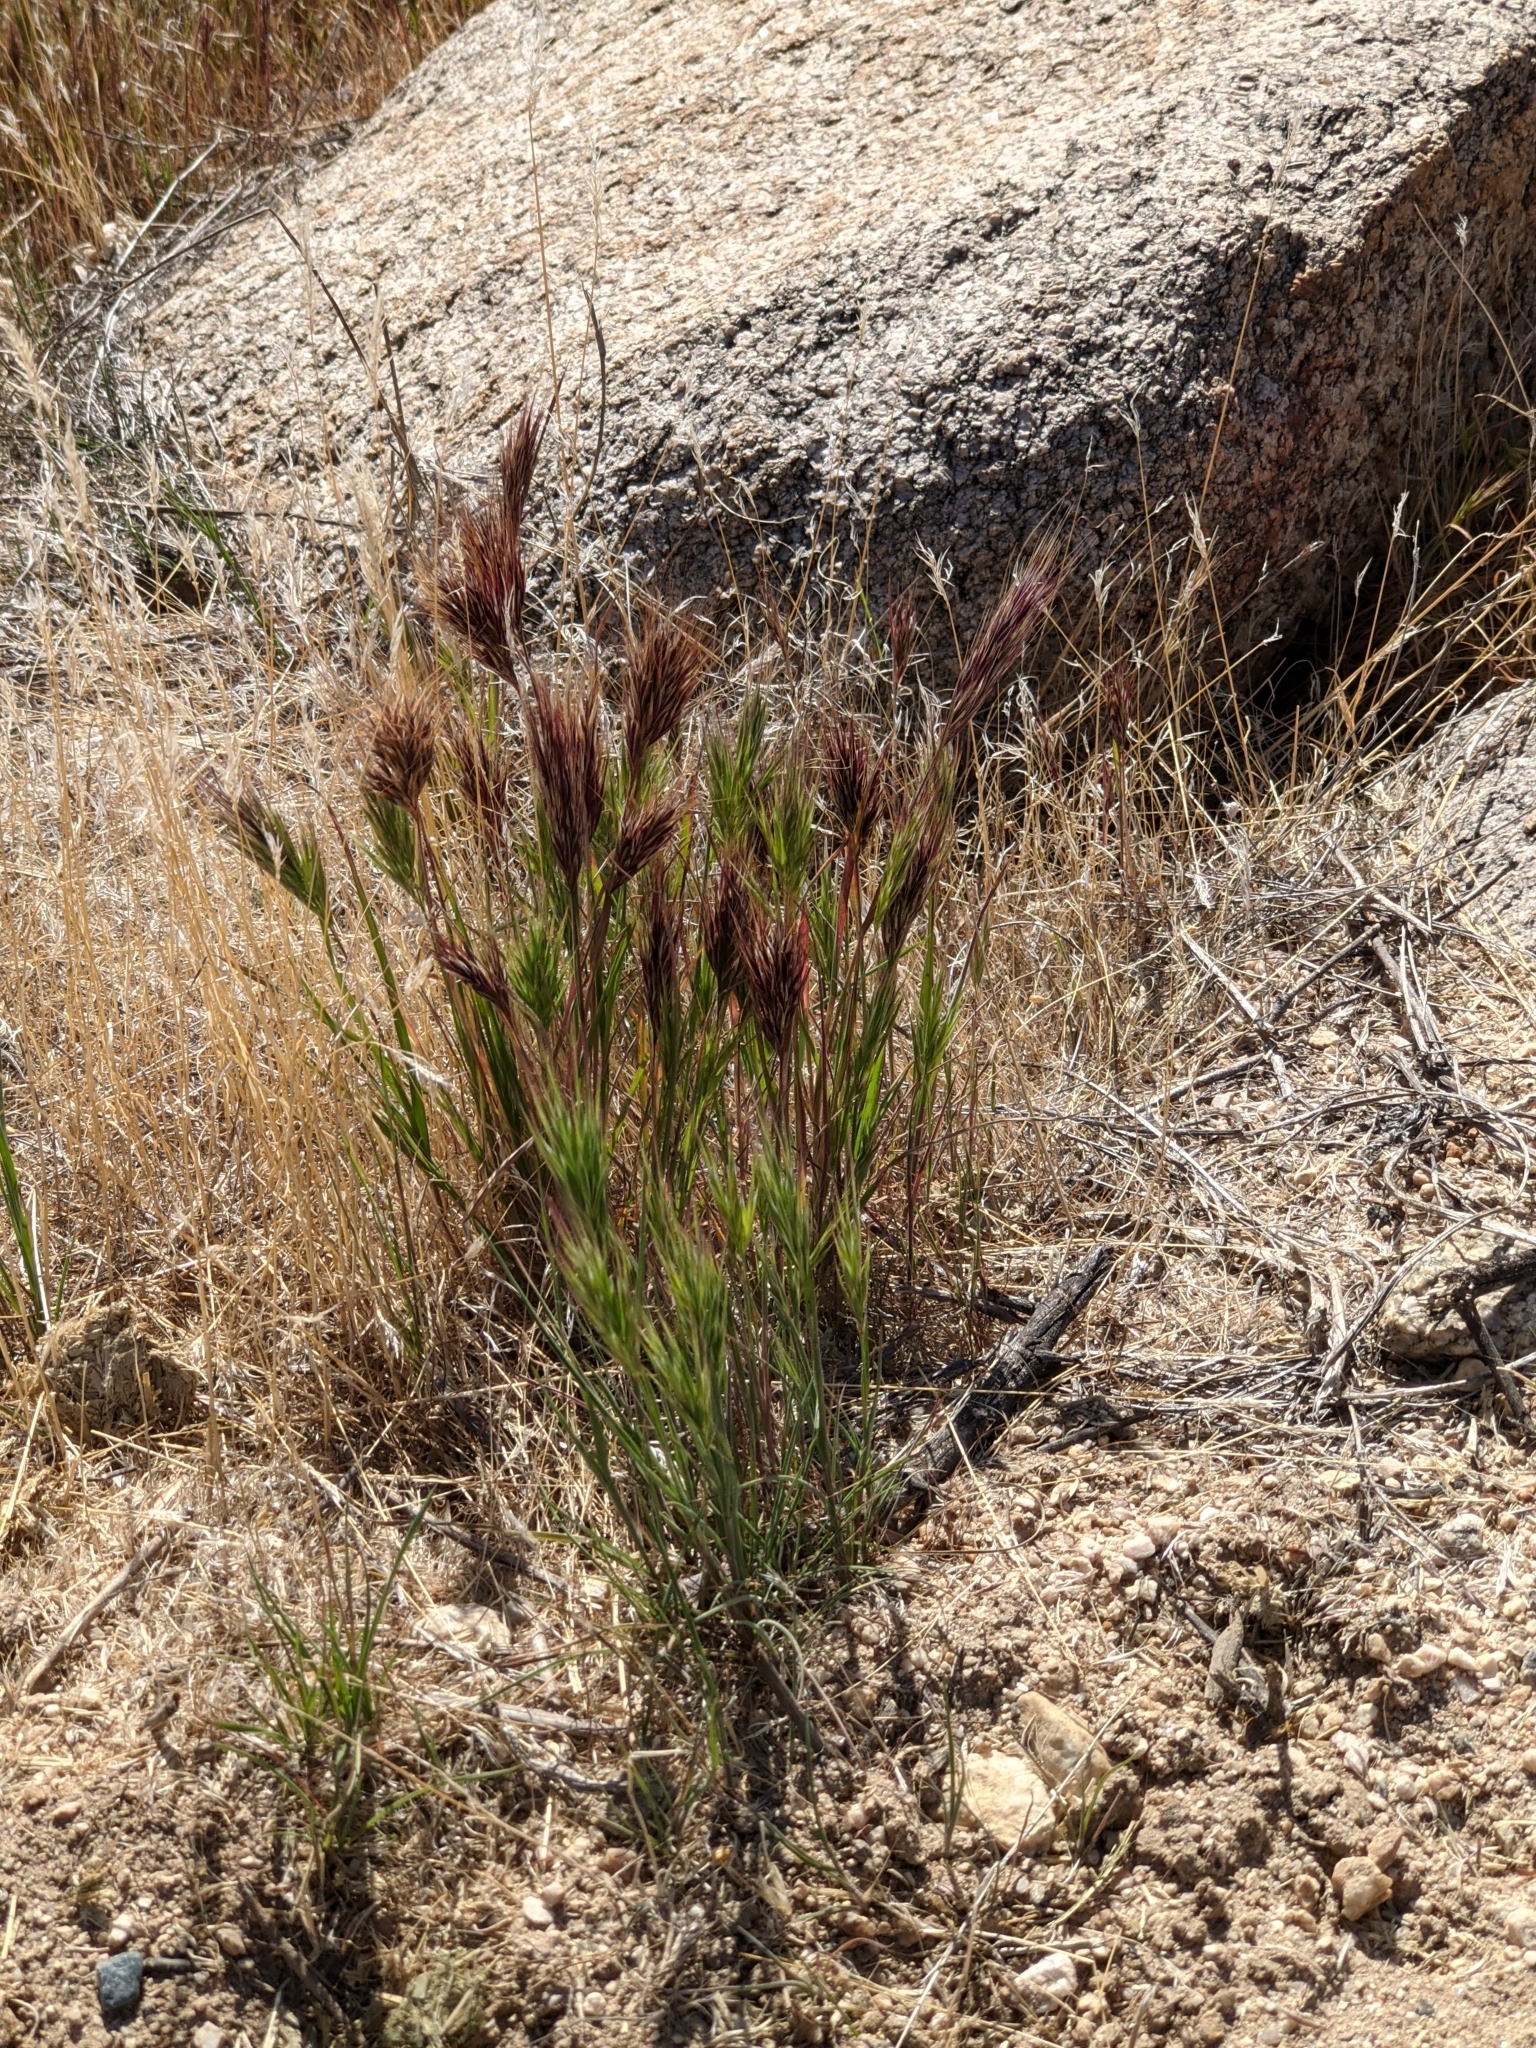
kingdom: Plantae
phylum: Tracheophyta
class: Liliopsida
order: Poales
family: Poaceae
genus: Bromus
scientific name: Bromus rubens
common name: Red brome
